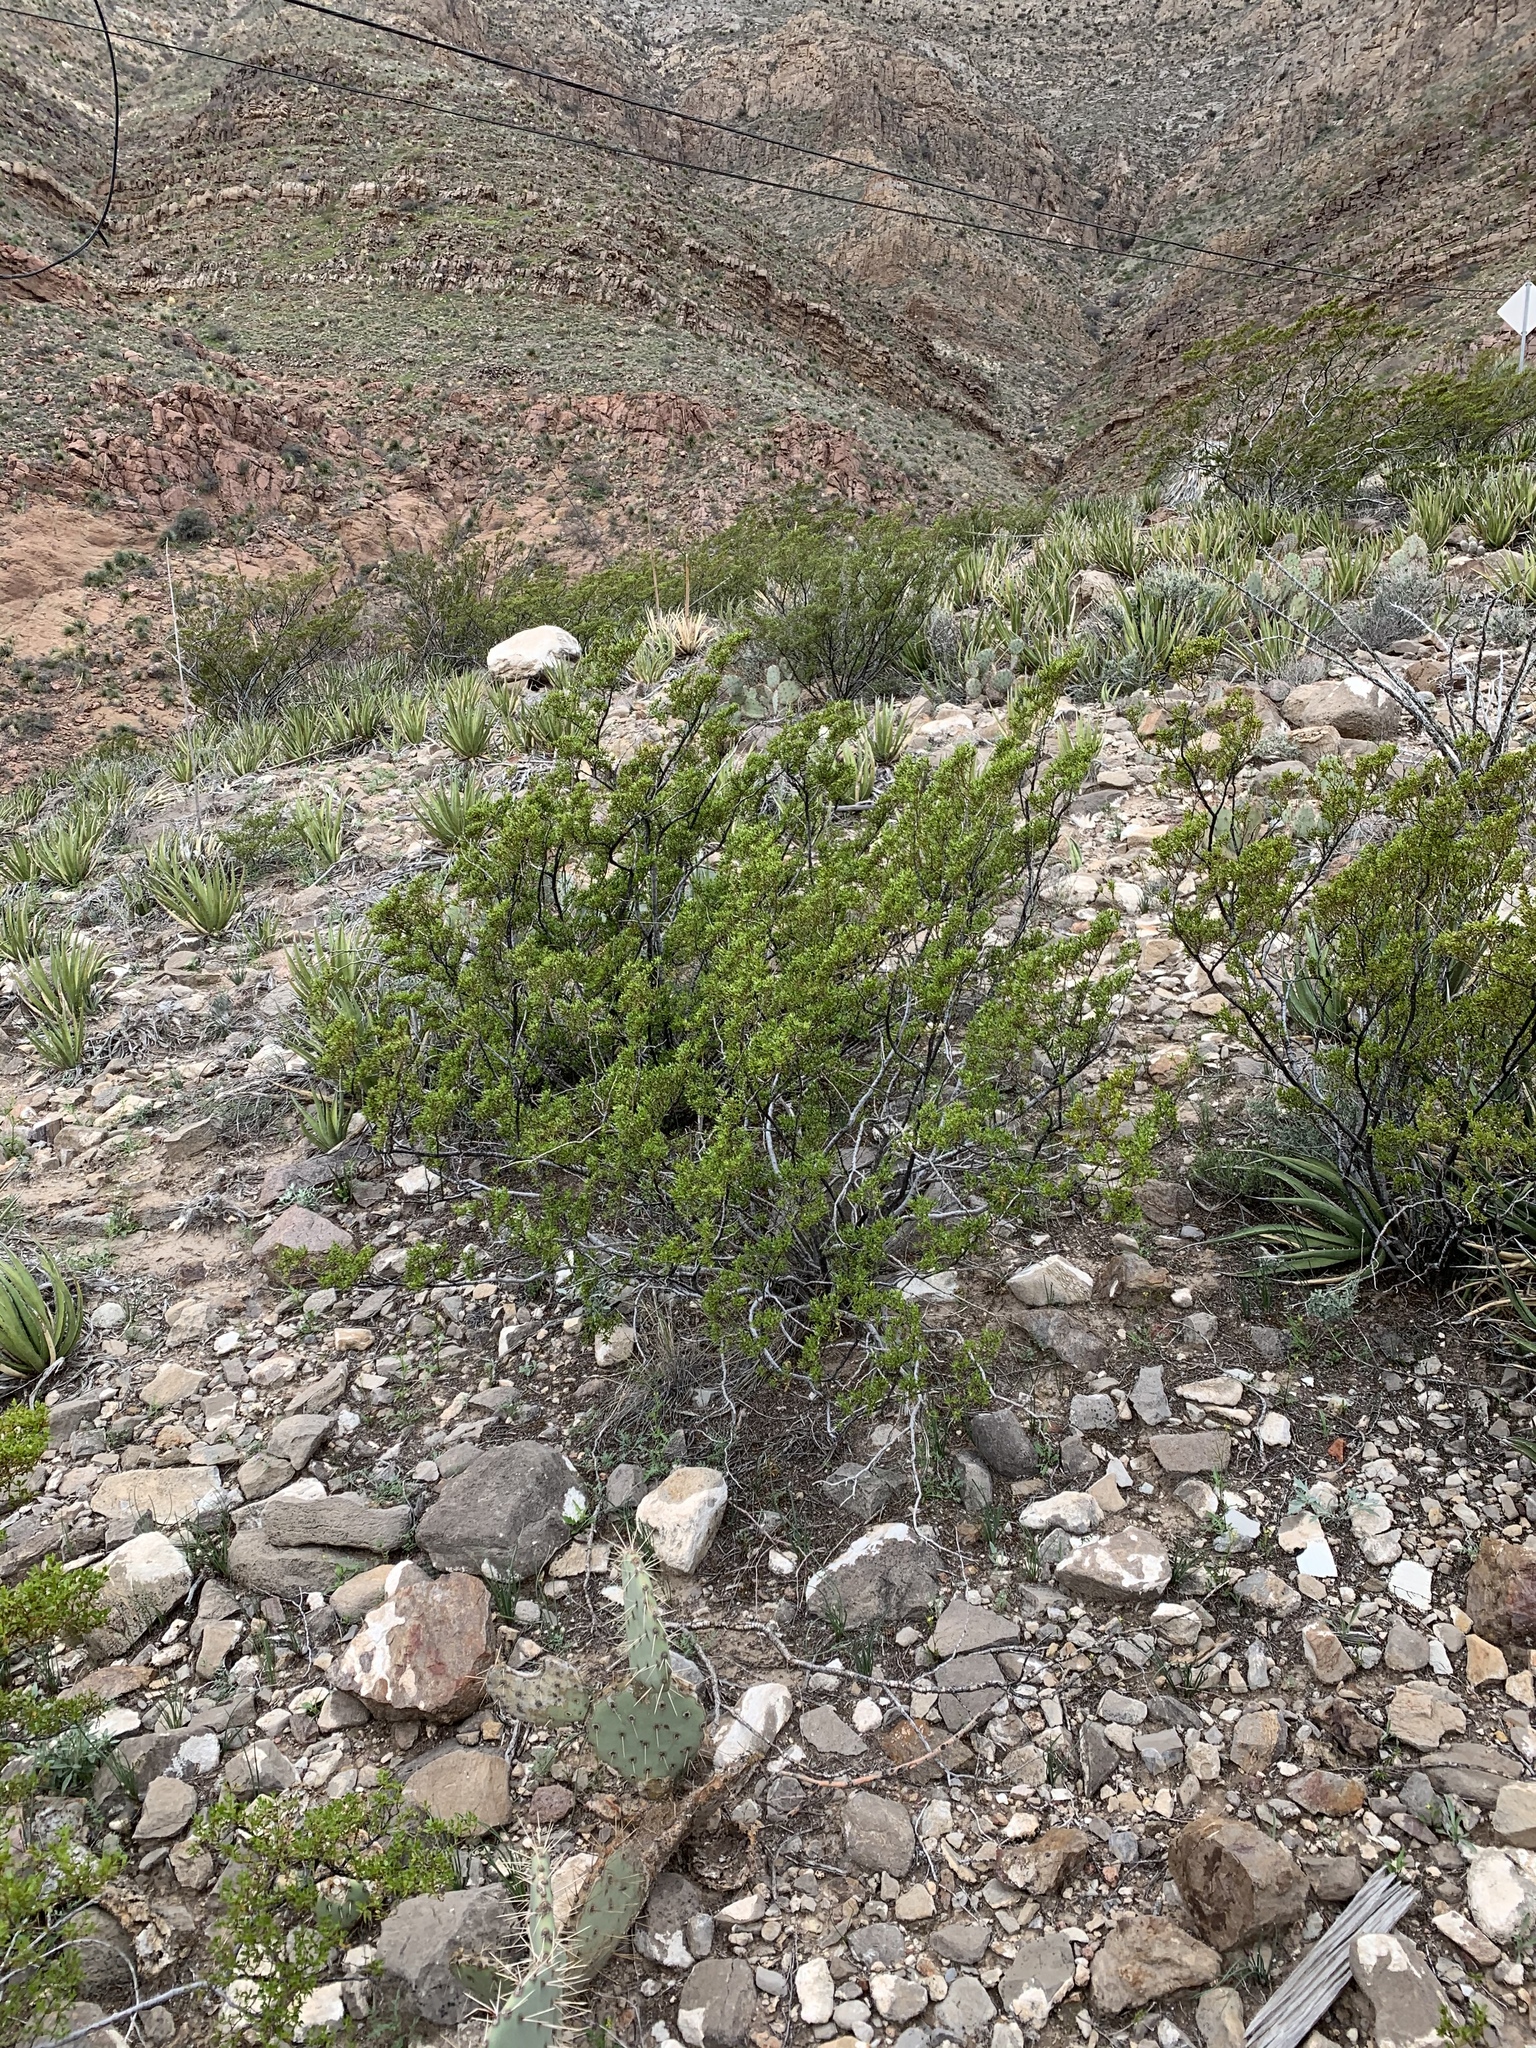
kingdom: Plantae
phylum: Tracheophyta
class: Magnoliopsida
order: Zygophyllales
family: Zygophyllaceae
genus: Larrea
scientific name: Larrea tridentata
